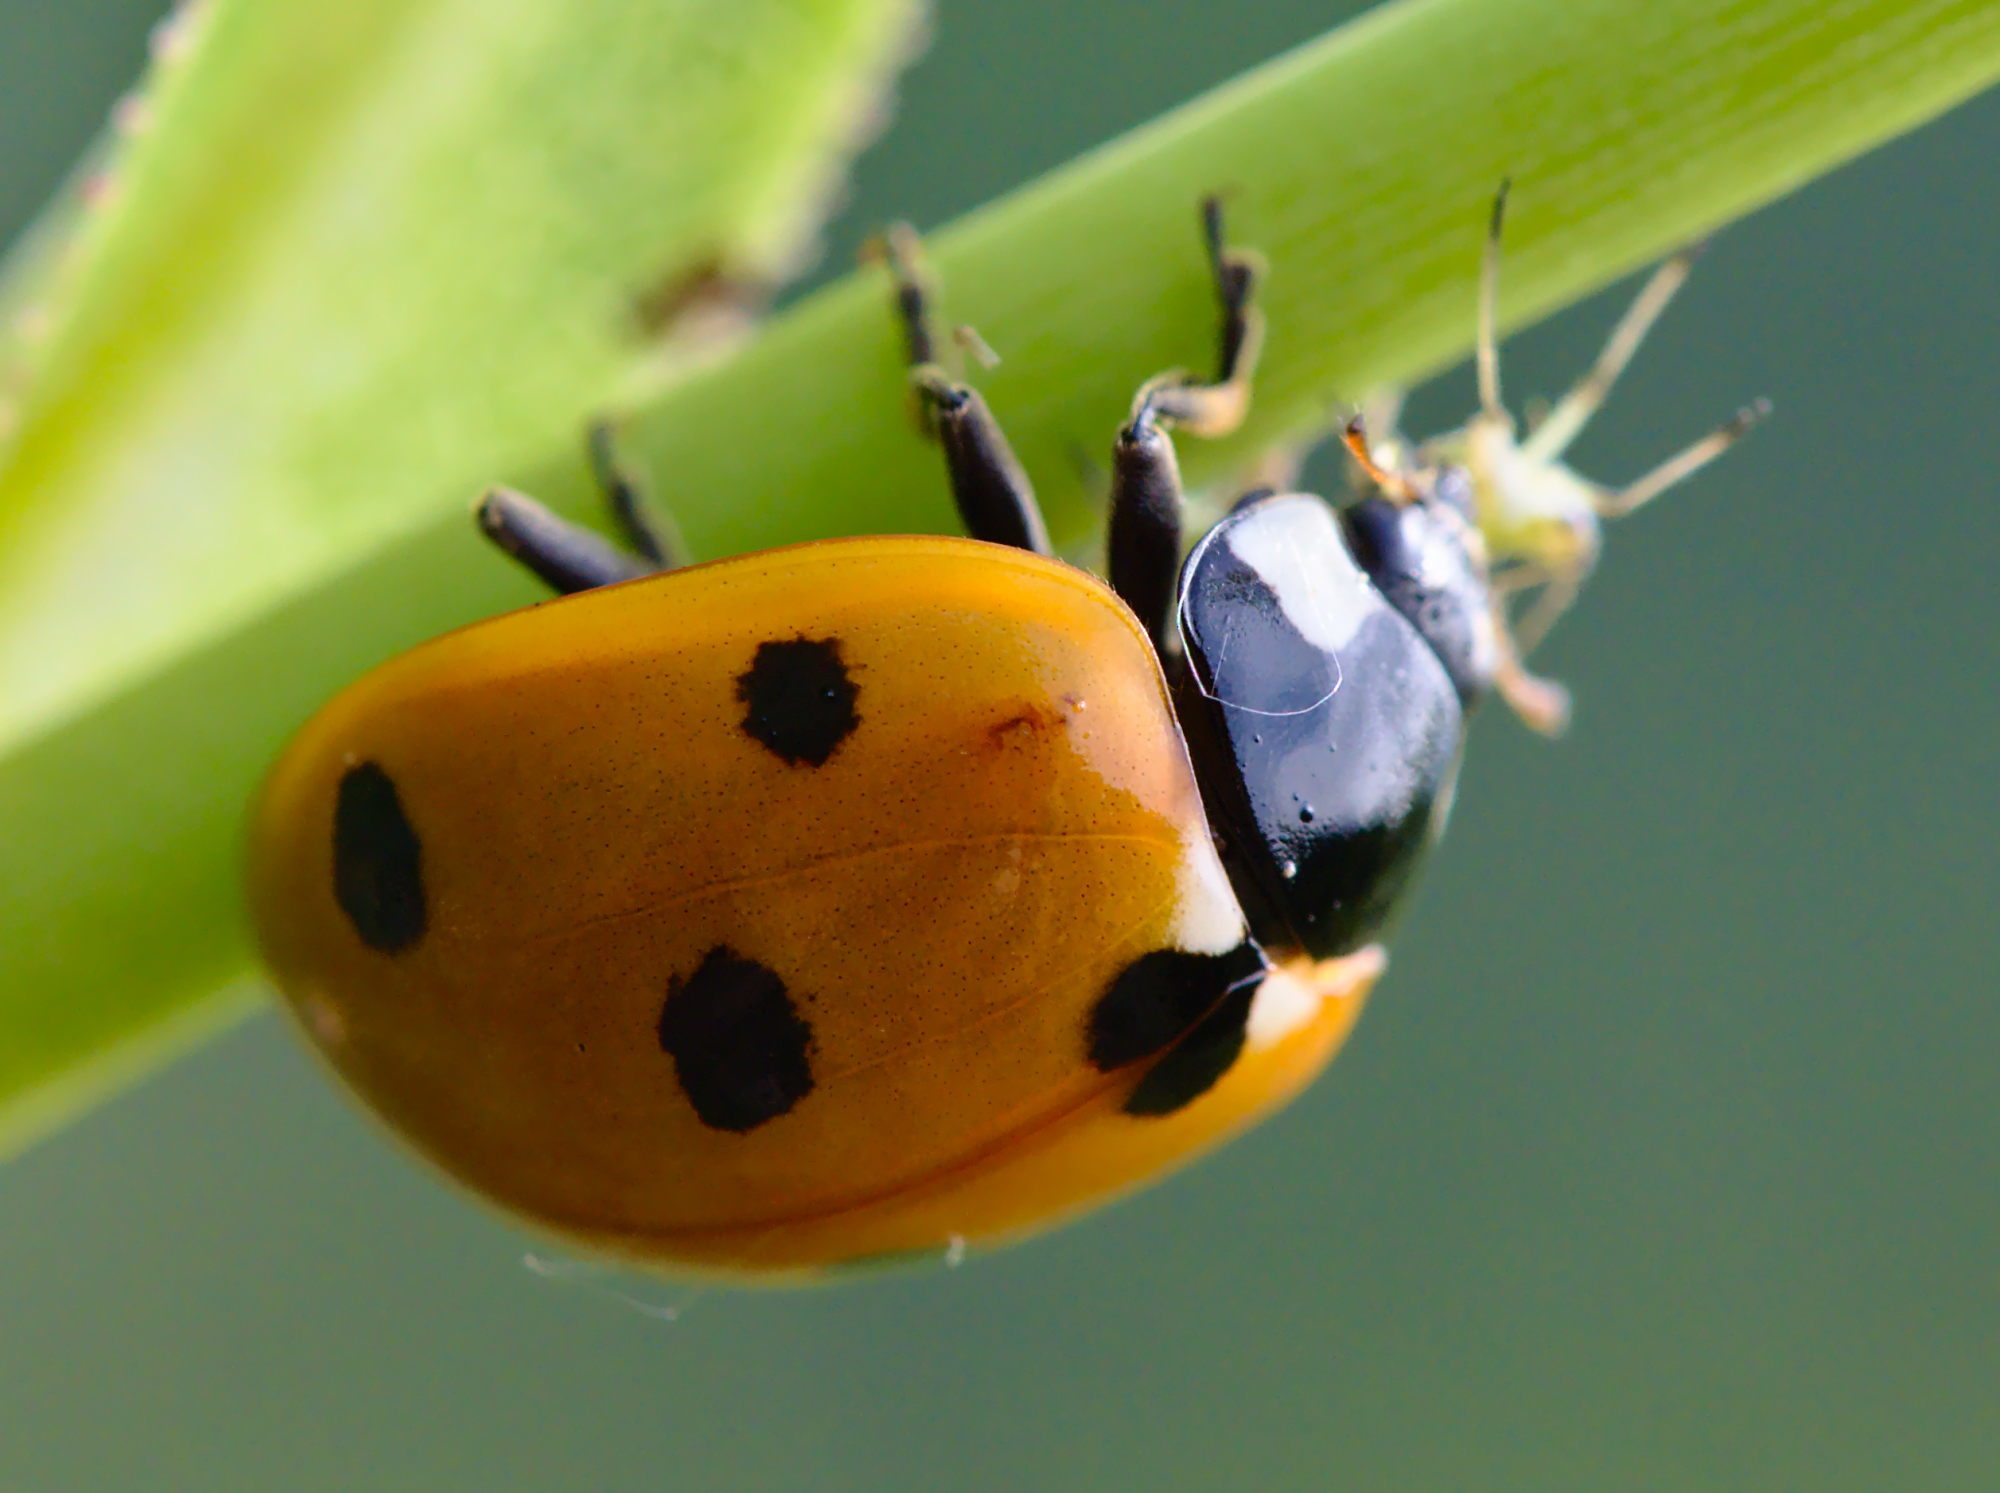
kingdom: Animalia
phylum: Arthropoda
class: Insecta
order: Coleoptera
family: Coccinellidae
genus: Coccinella
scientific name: Coccinella septempunctata
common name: Sevenspotted lady beetle
